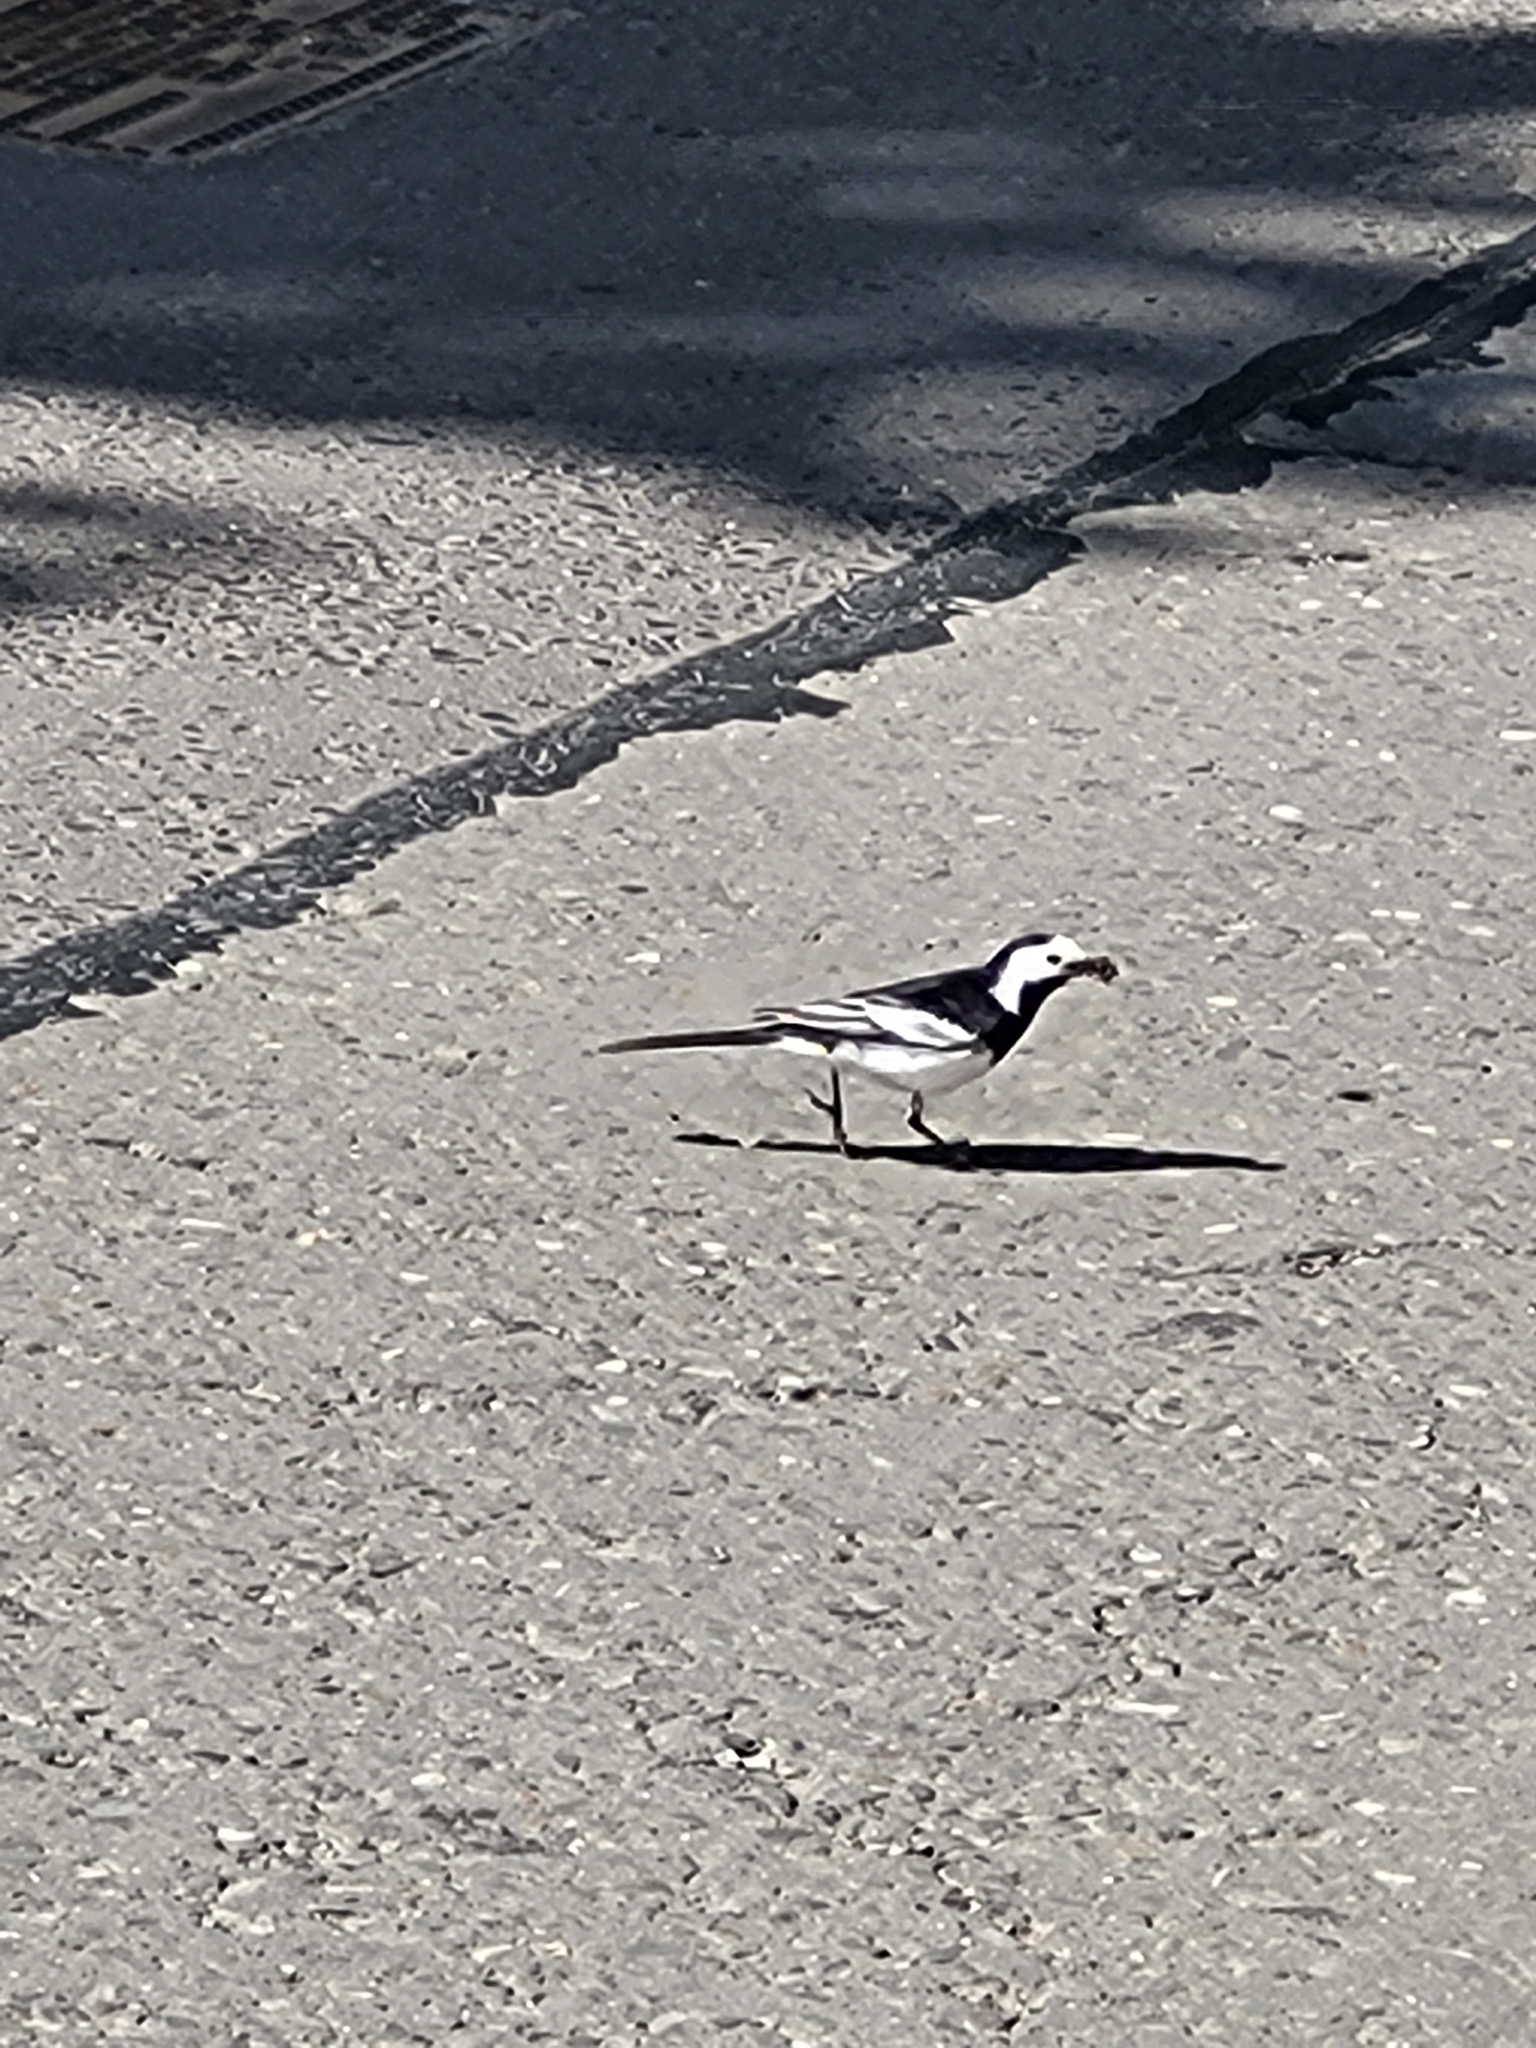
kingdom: Animalia
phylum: Chordata
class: Aves
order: Passeriformes
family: Motacillidae
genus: Motacilla
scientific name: Motacilla alba
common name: White wagtail
